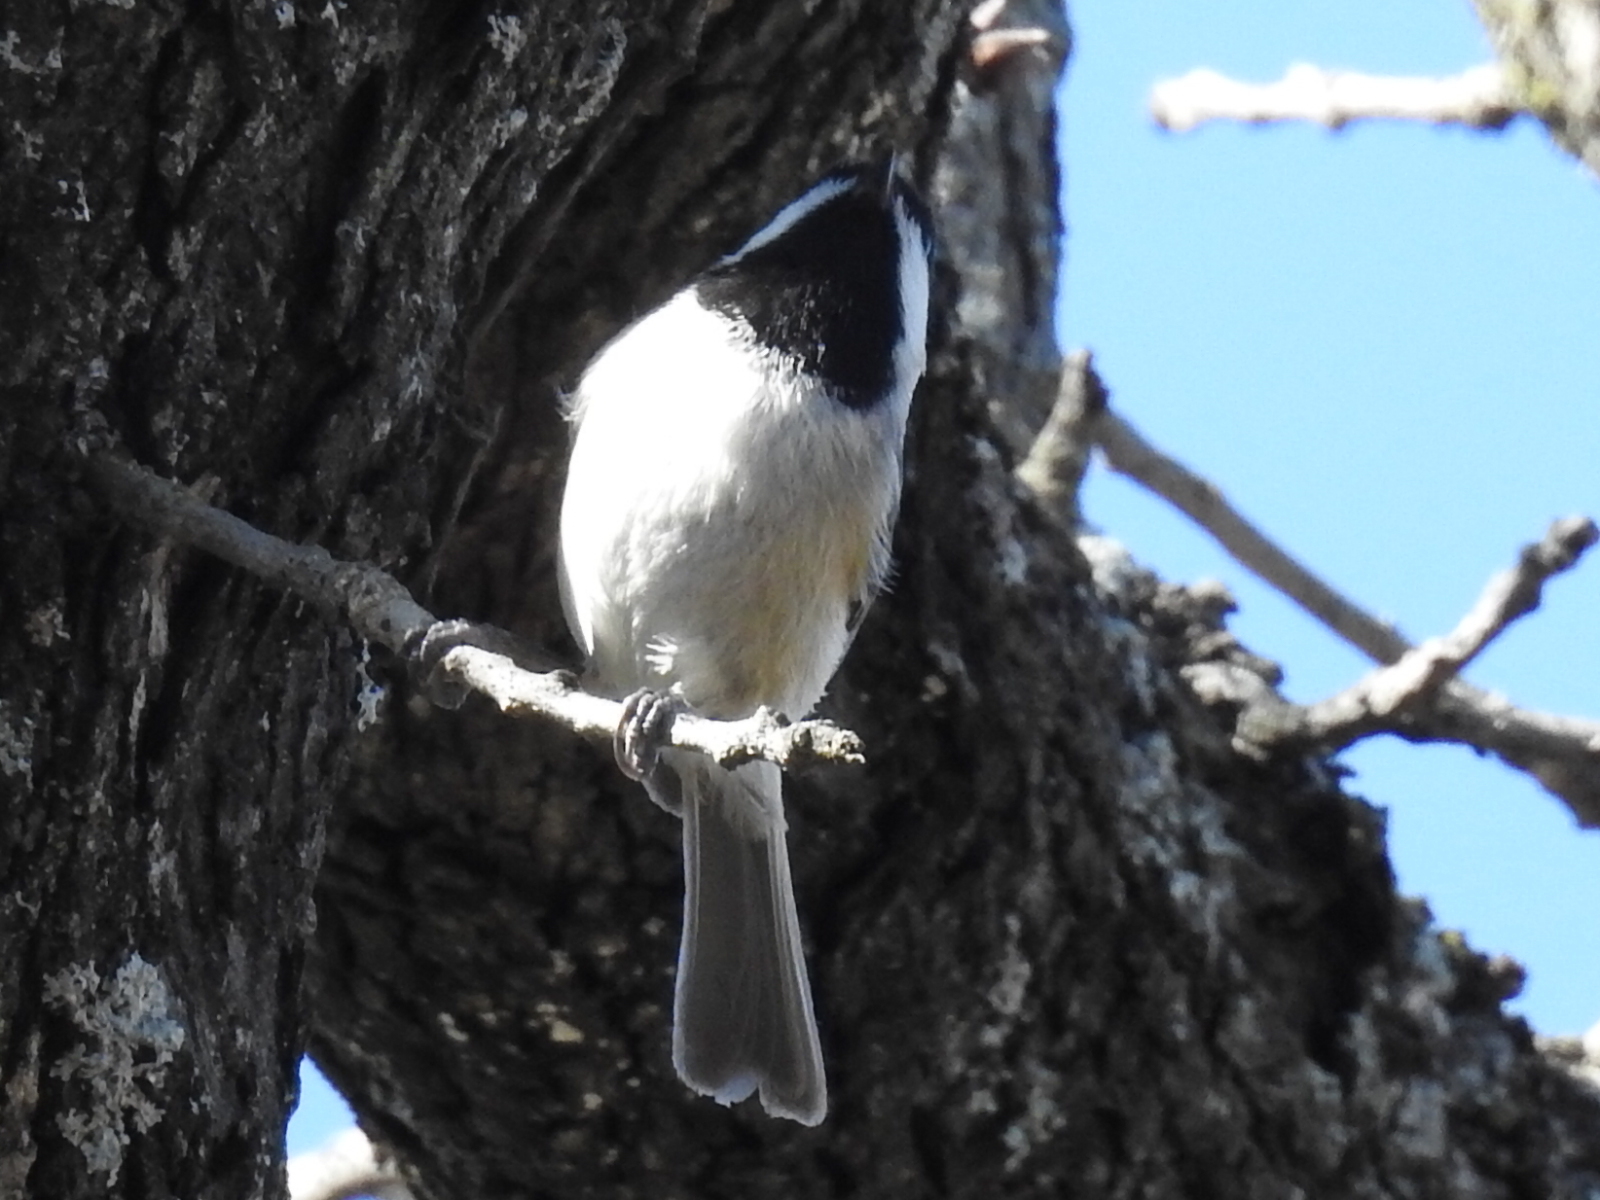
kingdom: Animalia
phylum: Chordata
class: Aves
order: Passeriformes
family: Paridae
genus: Poecile
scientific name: Poecile carolinensis
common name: Carolina chickadee
